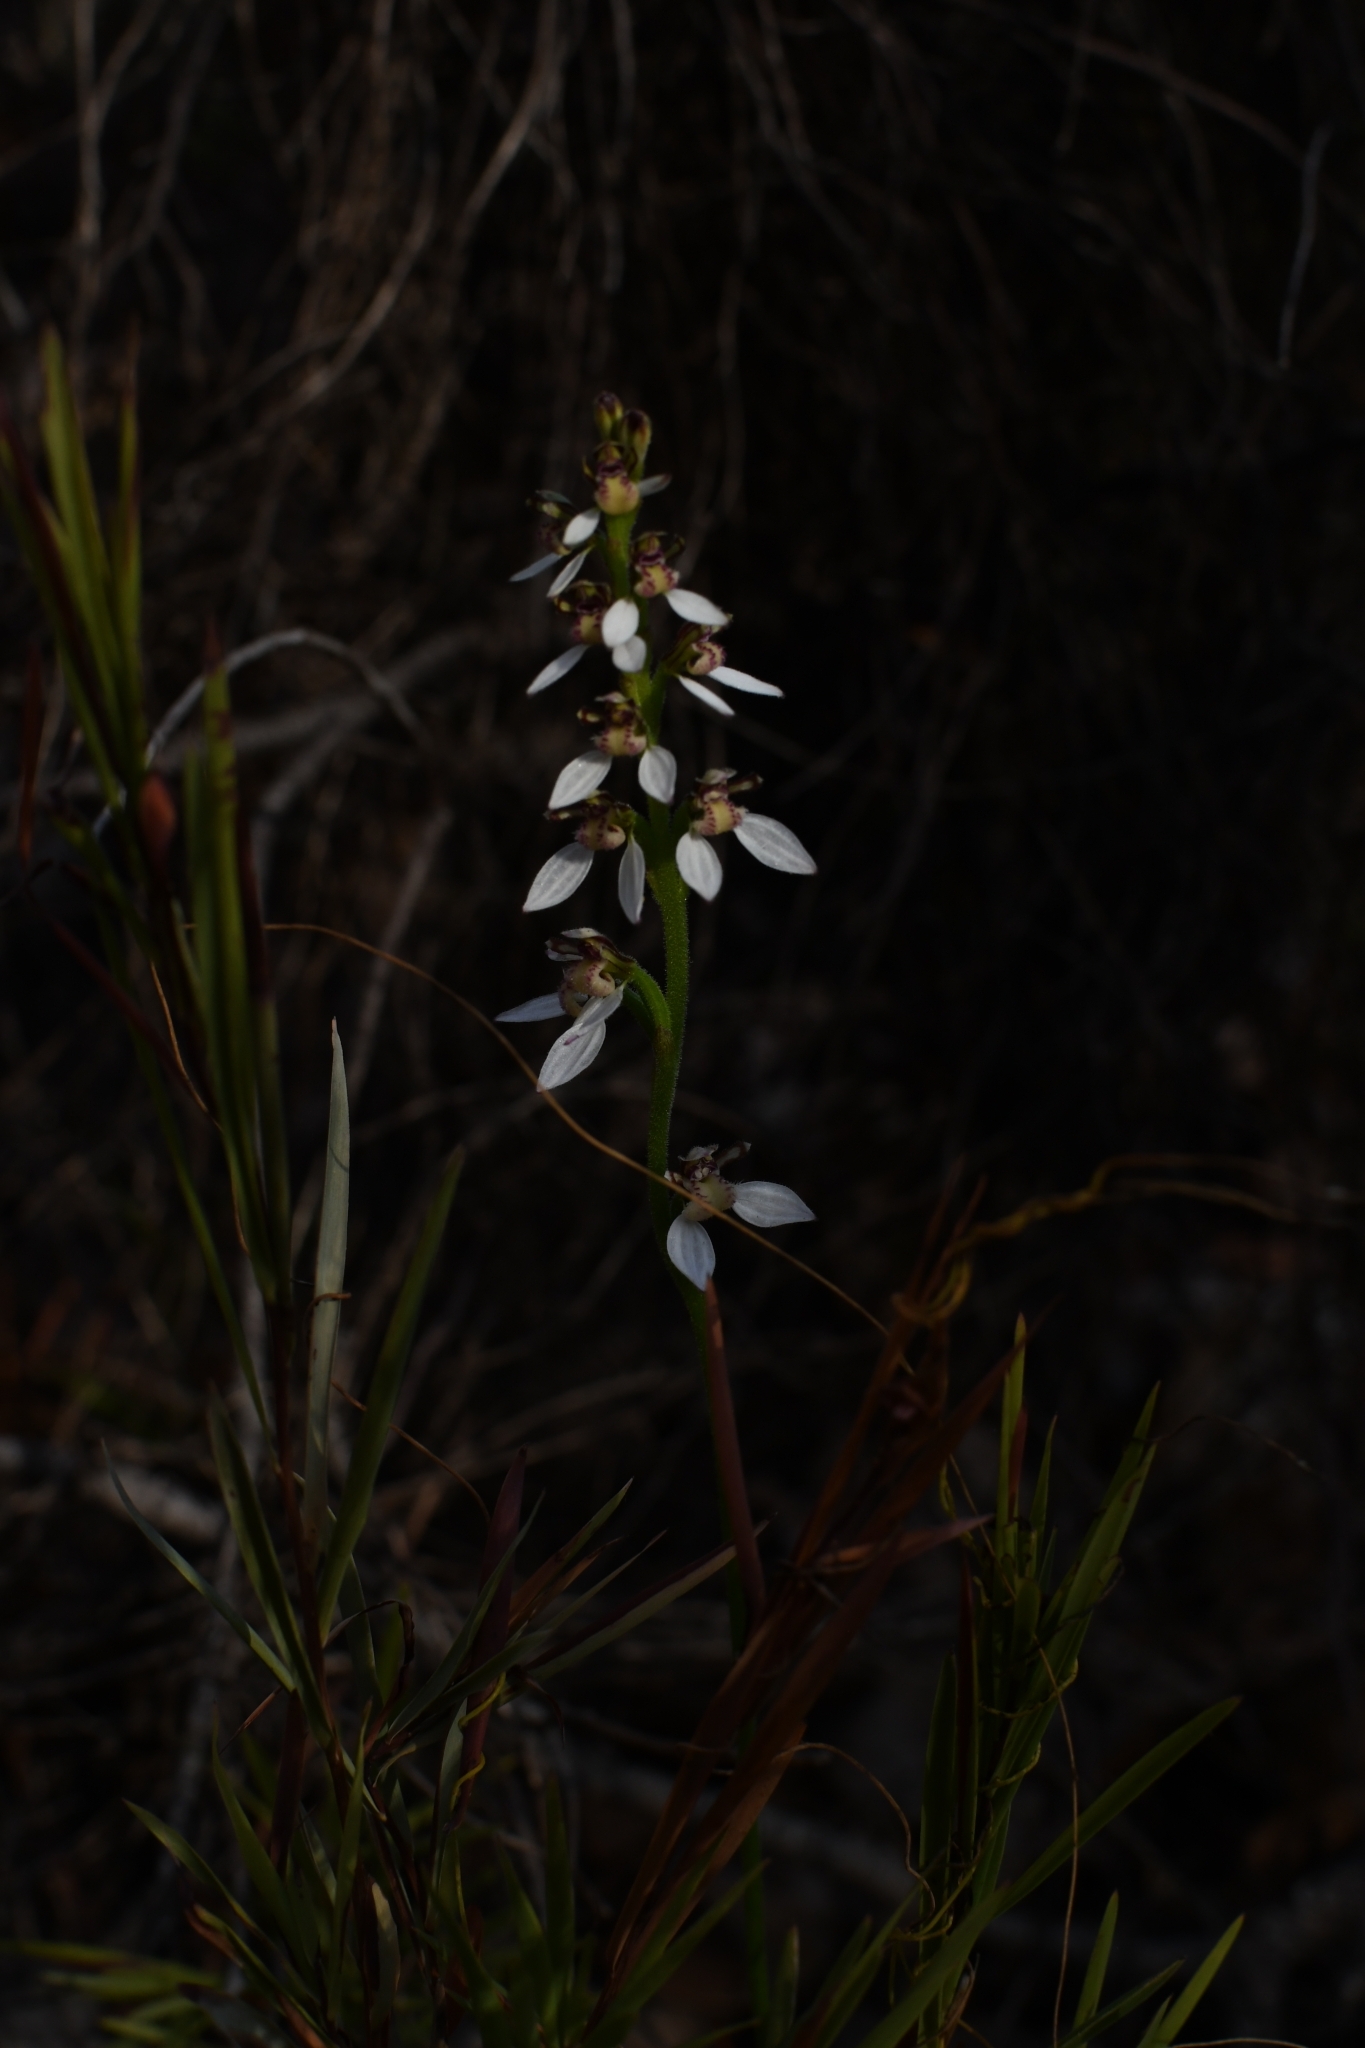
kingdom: Plantae
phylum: Tracheophyta
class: Liliopsida
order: Asparagales
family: Orchidaceae
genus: Eriochilus
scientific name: Eriochilus dilatatus
